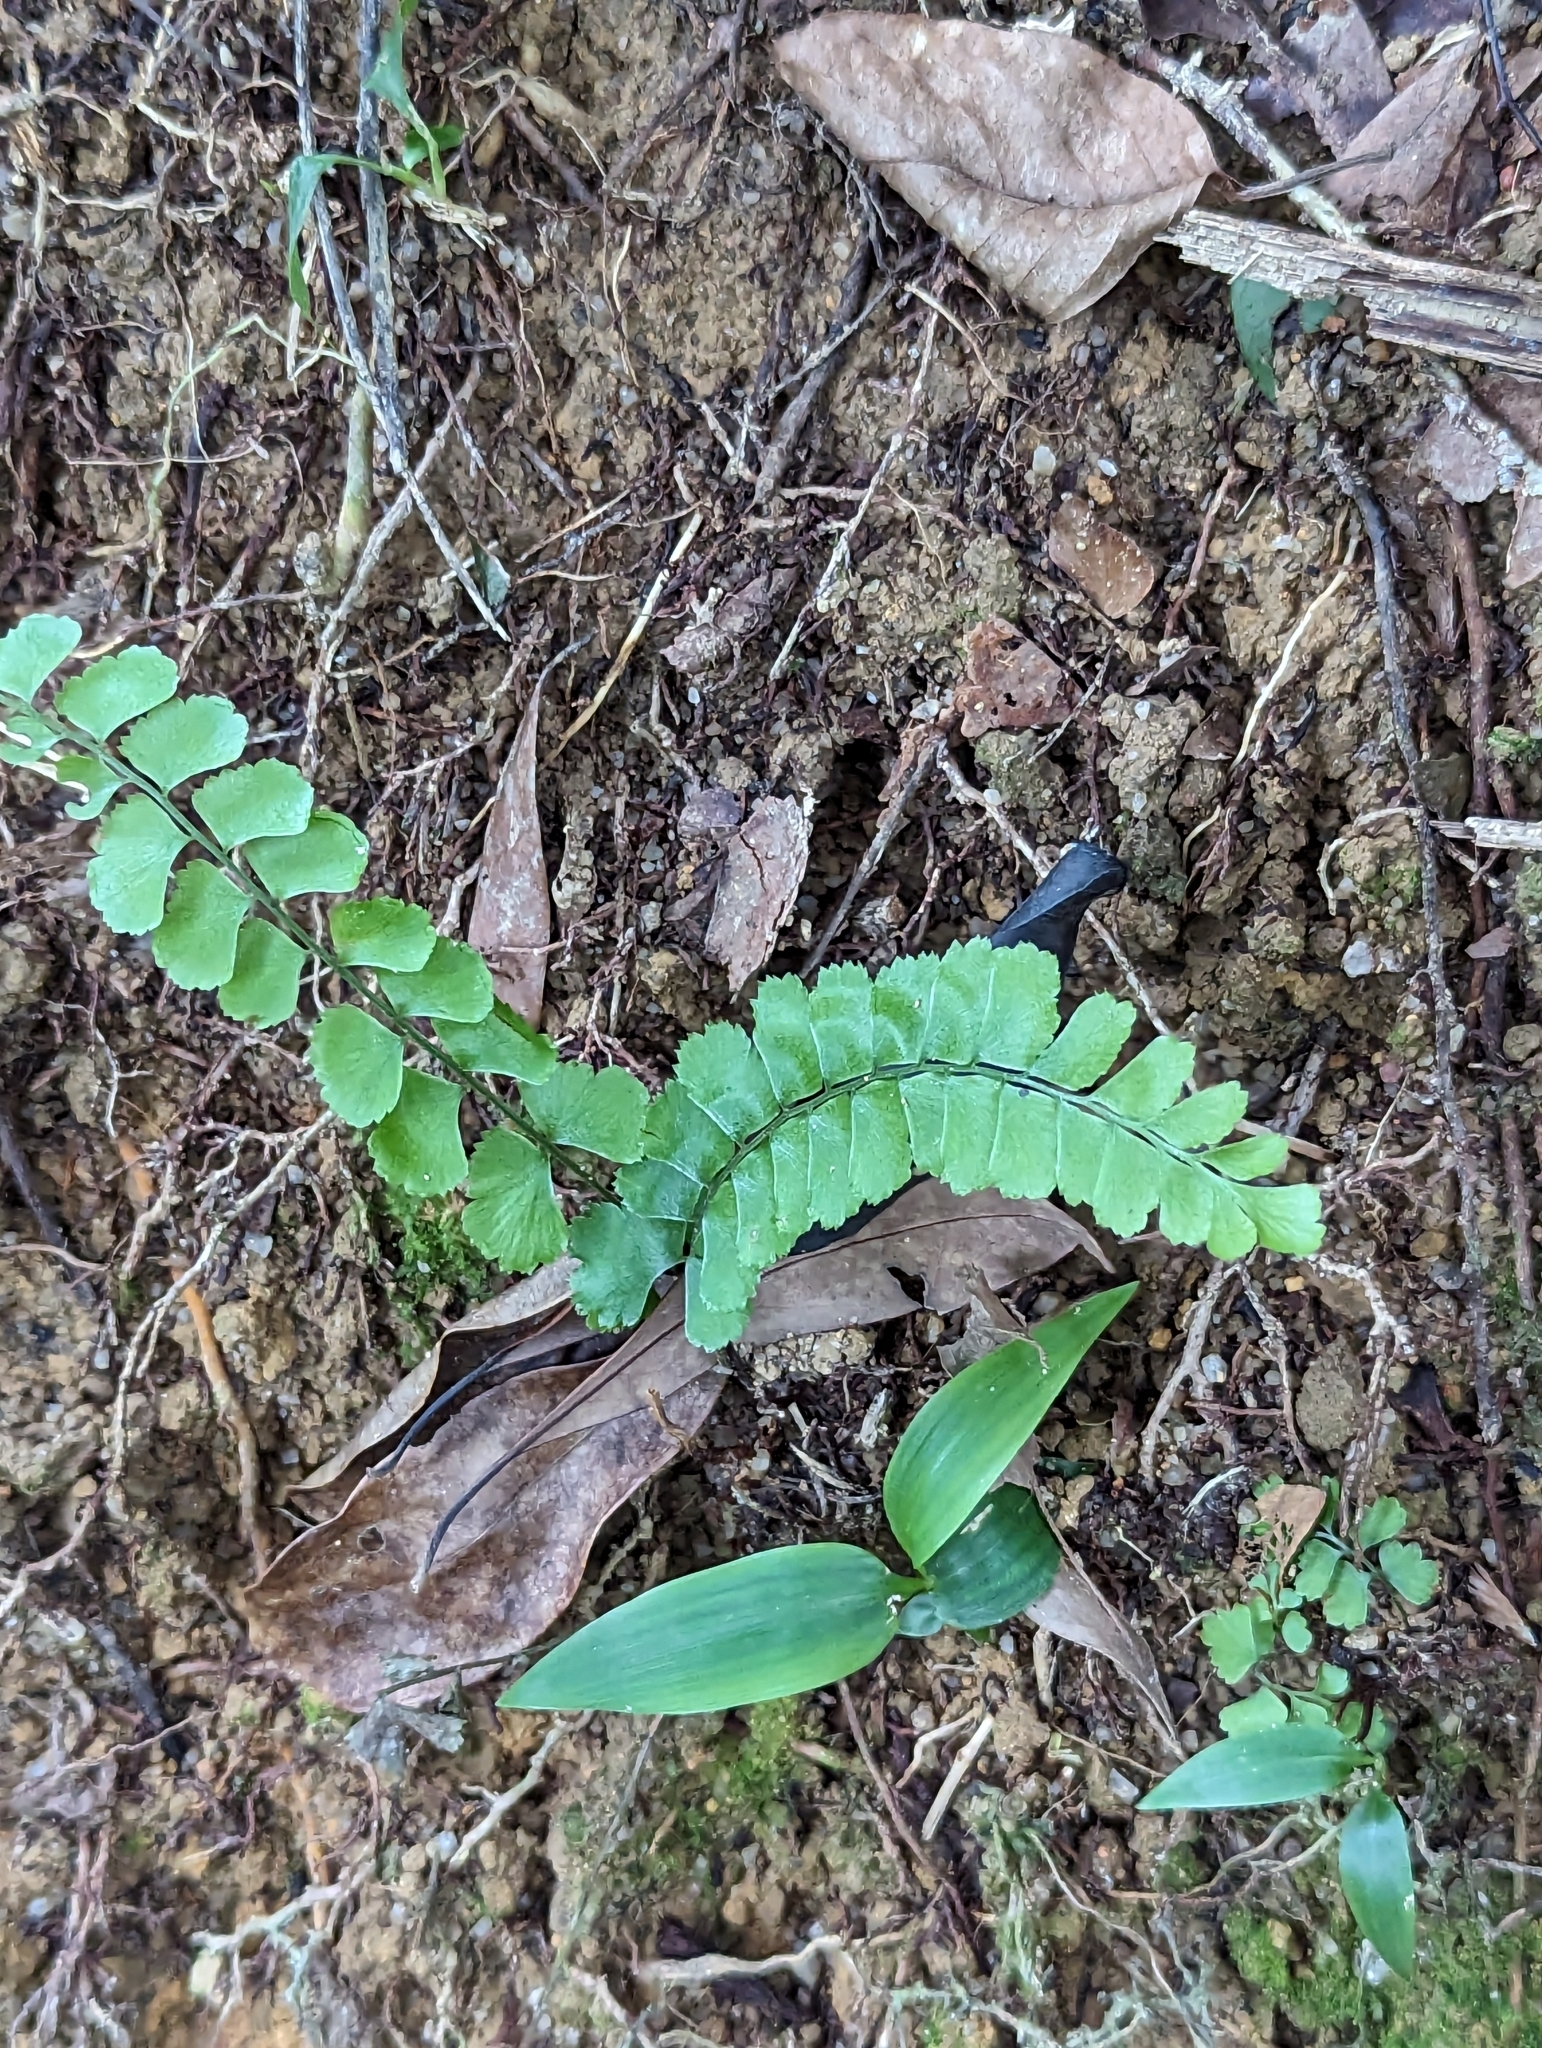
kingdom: Plantae
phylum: Tracheophyta
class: Polypodiopsida
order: Polypodiales
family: Lindsaeaceae
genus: Lindsaea
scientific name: Lindsaea orbiculata
